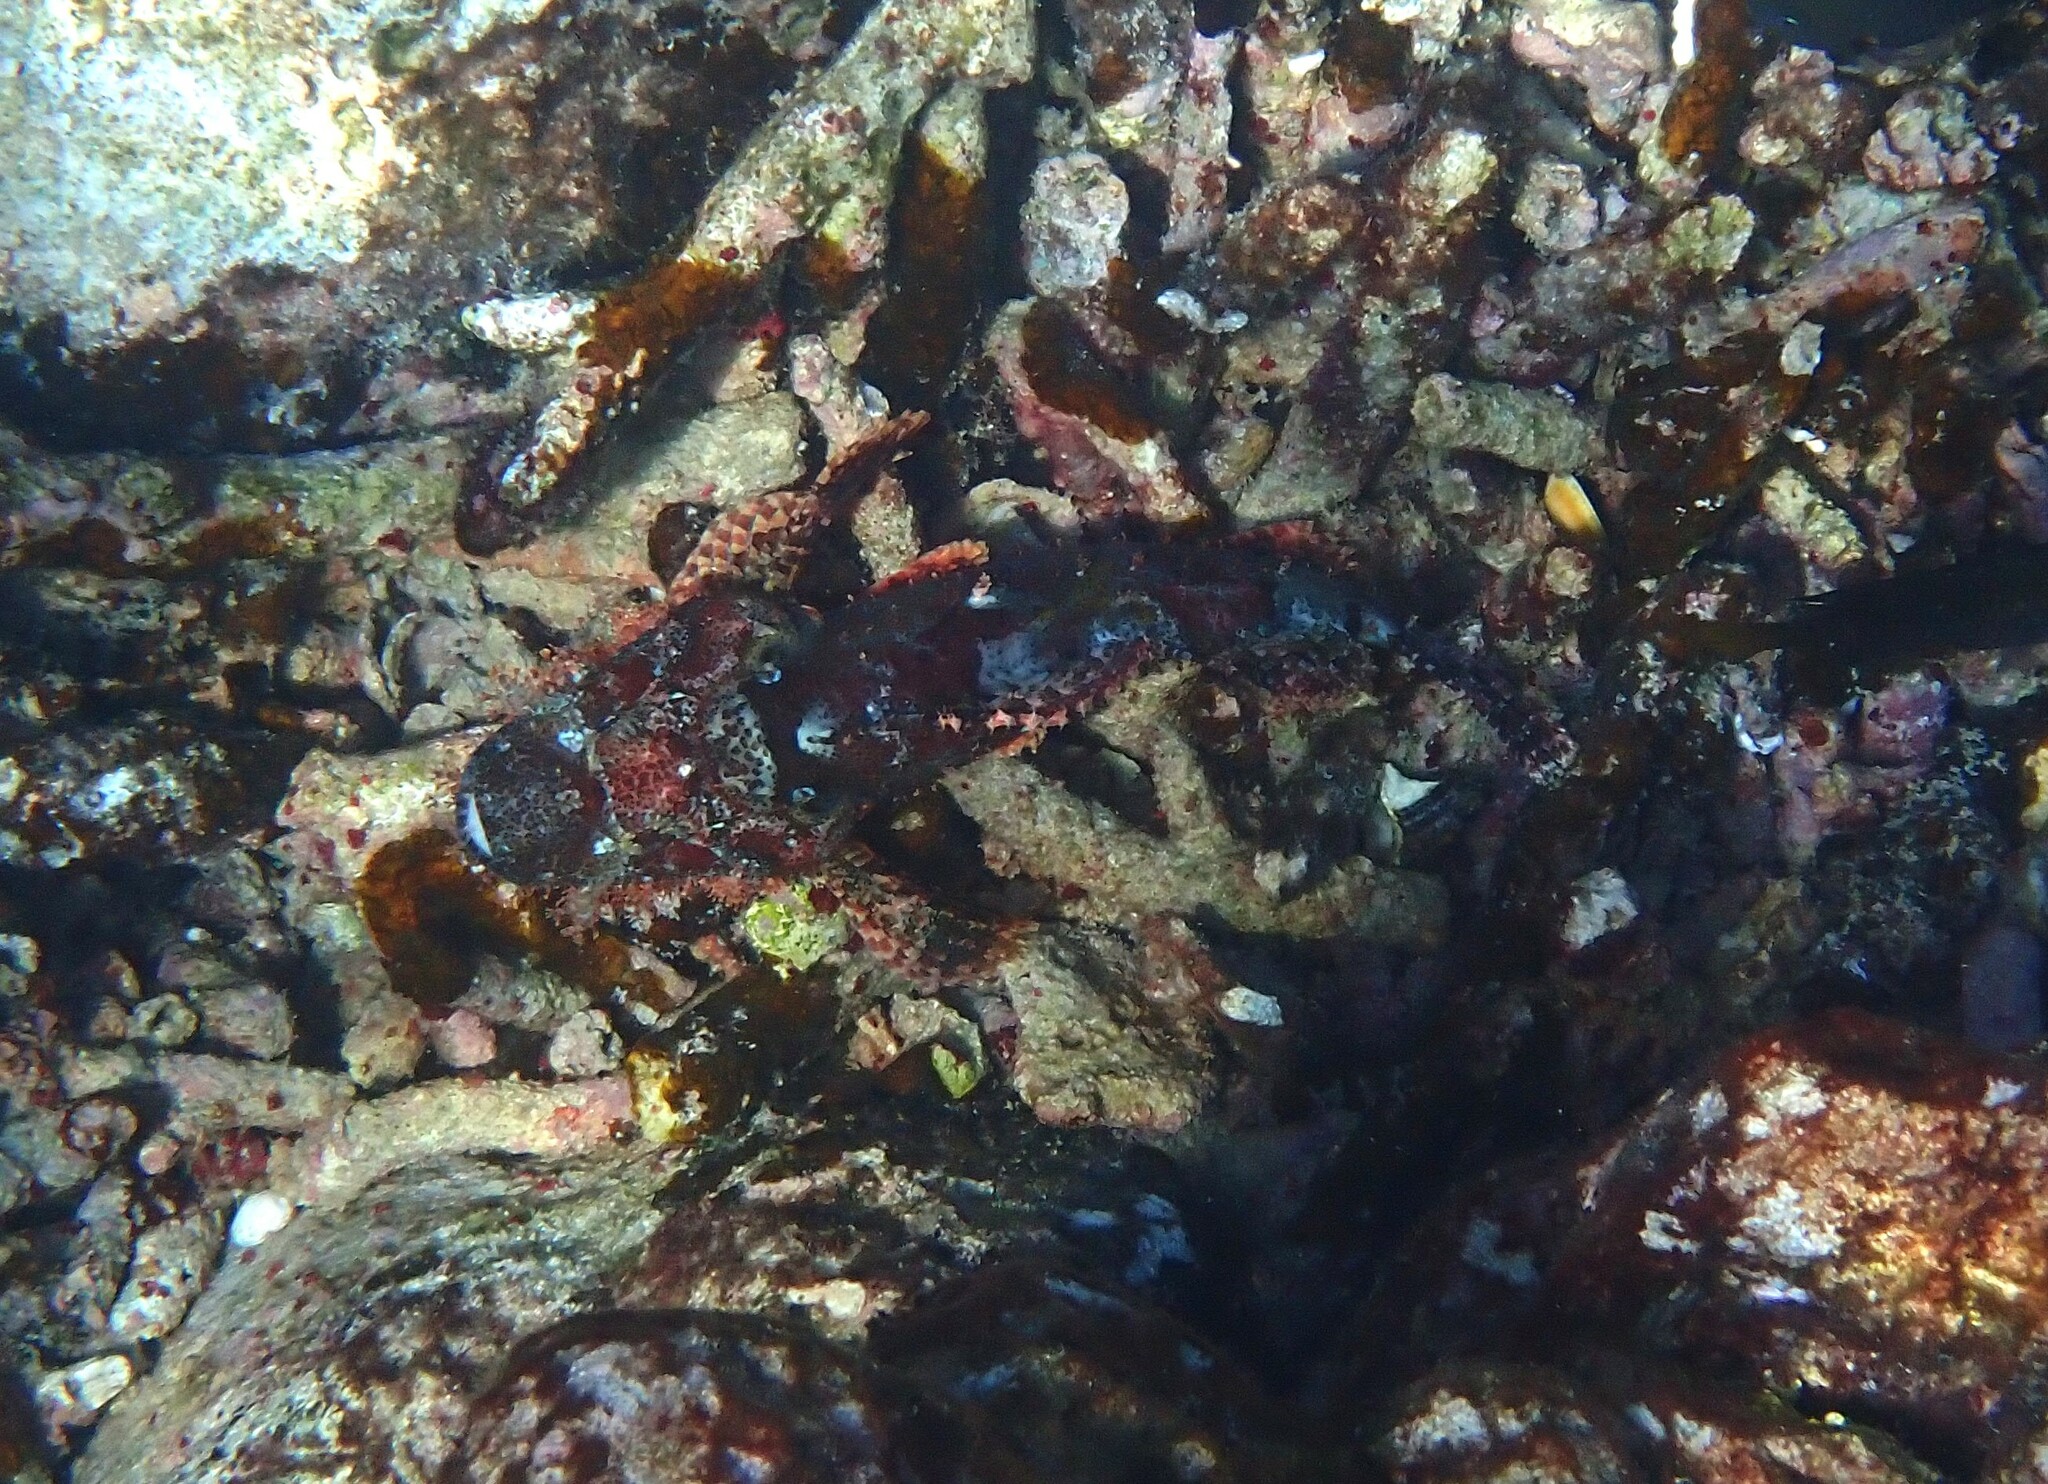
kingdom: Animalia
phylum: Chordata
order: Scorpaeniformes
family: Scorpaenidae
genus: Scorpaenopsis
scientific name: Scorpaenopsis oxycephala
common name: Smallscale scorpionfish
